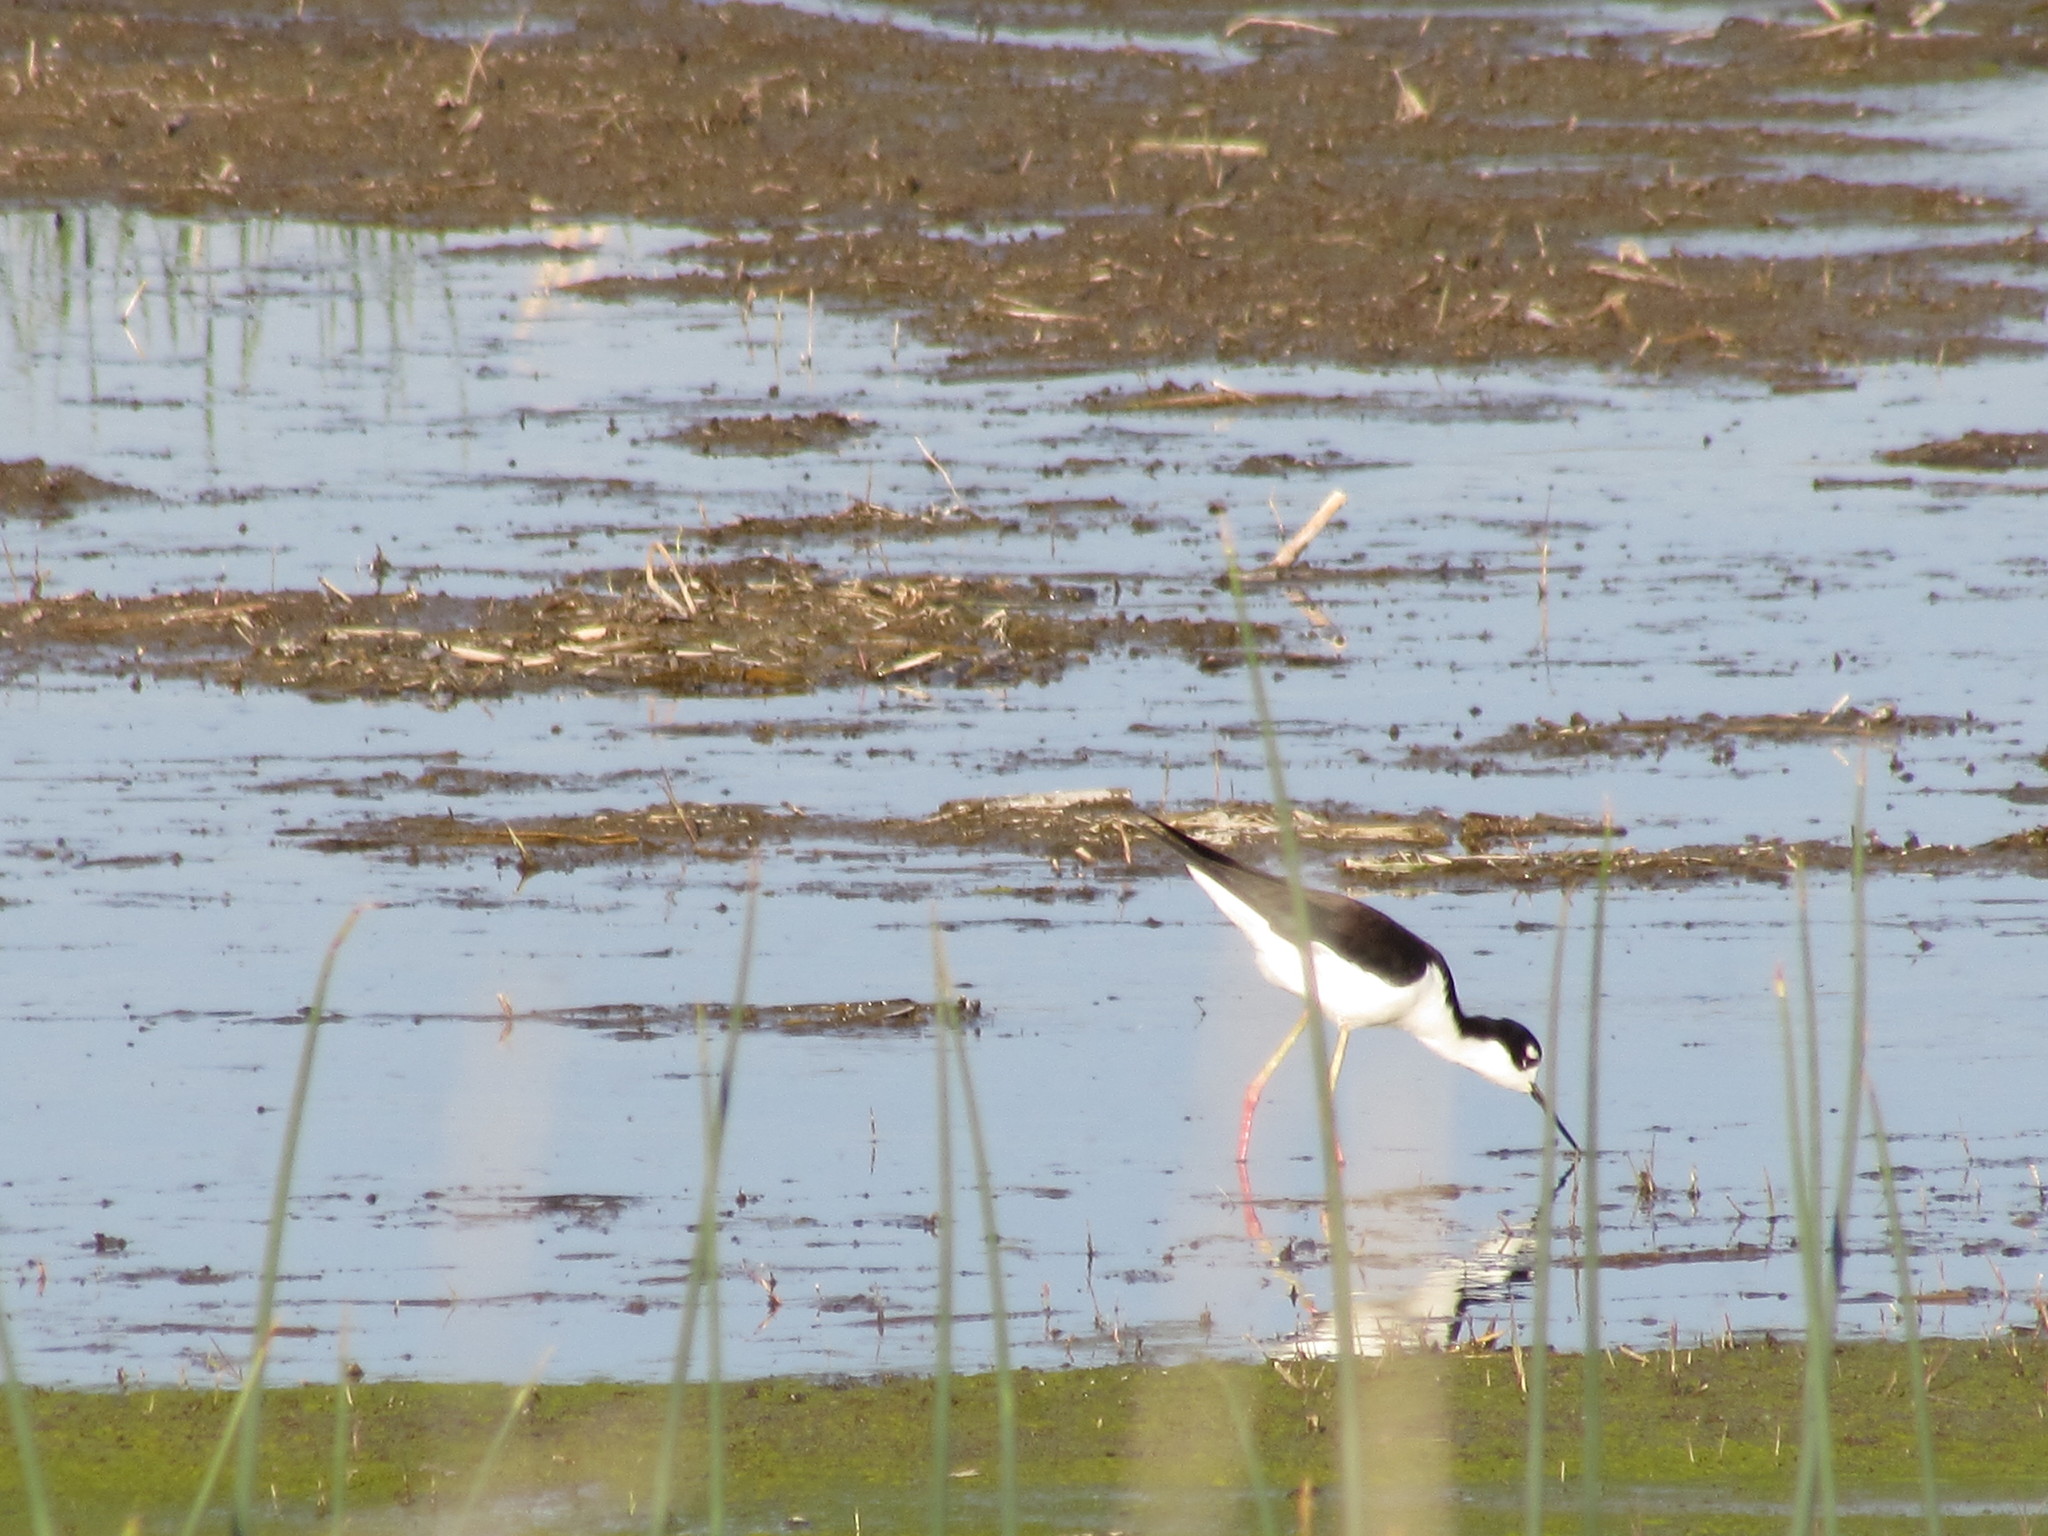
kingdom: Animalia
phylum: Chordata
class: Aves
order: Charadriiformes
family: Recurvirostridae
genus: Himantopus
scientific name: Himantopus mexicanus
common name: Black-necked stilt
